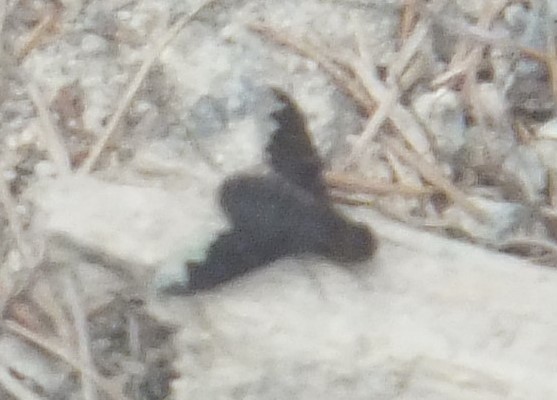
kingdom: Animalia
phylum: Arthropoda
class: Insecta
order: Diptera
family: Bombyliidae
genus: Hemipenthes
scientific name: Hemipenthes sinuosus
